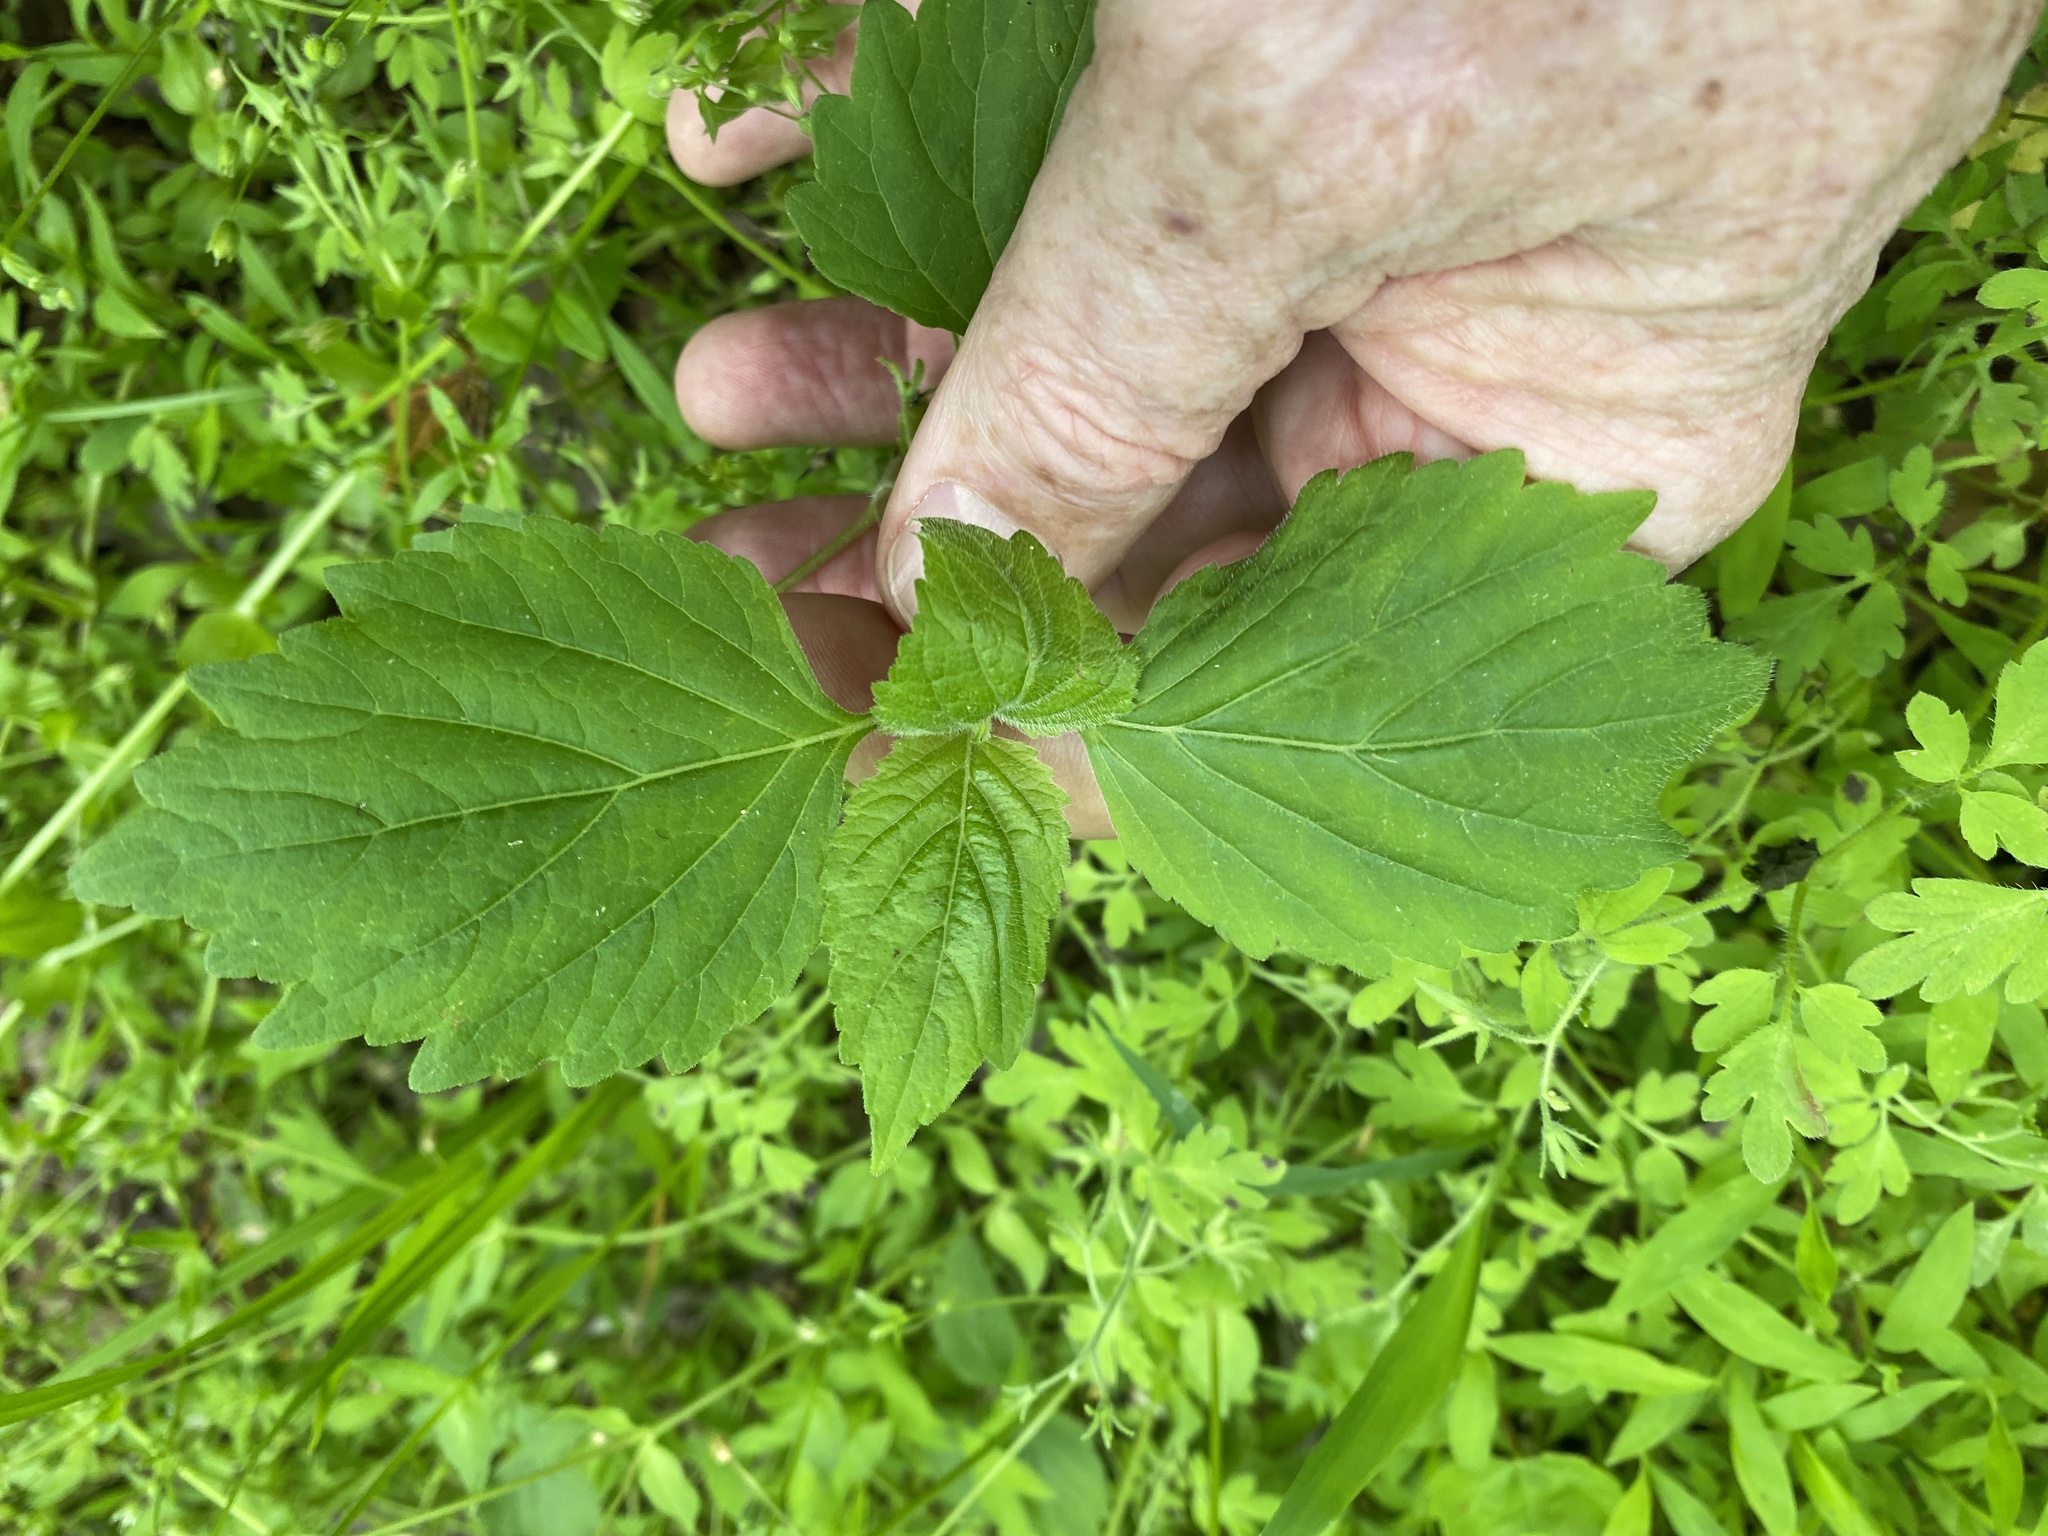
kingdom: Plantae
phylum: Tracheophyta
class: Magnoliopsida
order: Lamiales
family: Phrymaceae
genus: Phryma
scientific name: Phryma leptostachya
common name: American lopseed
